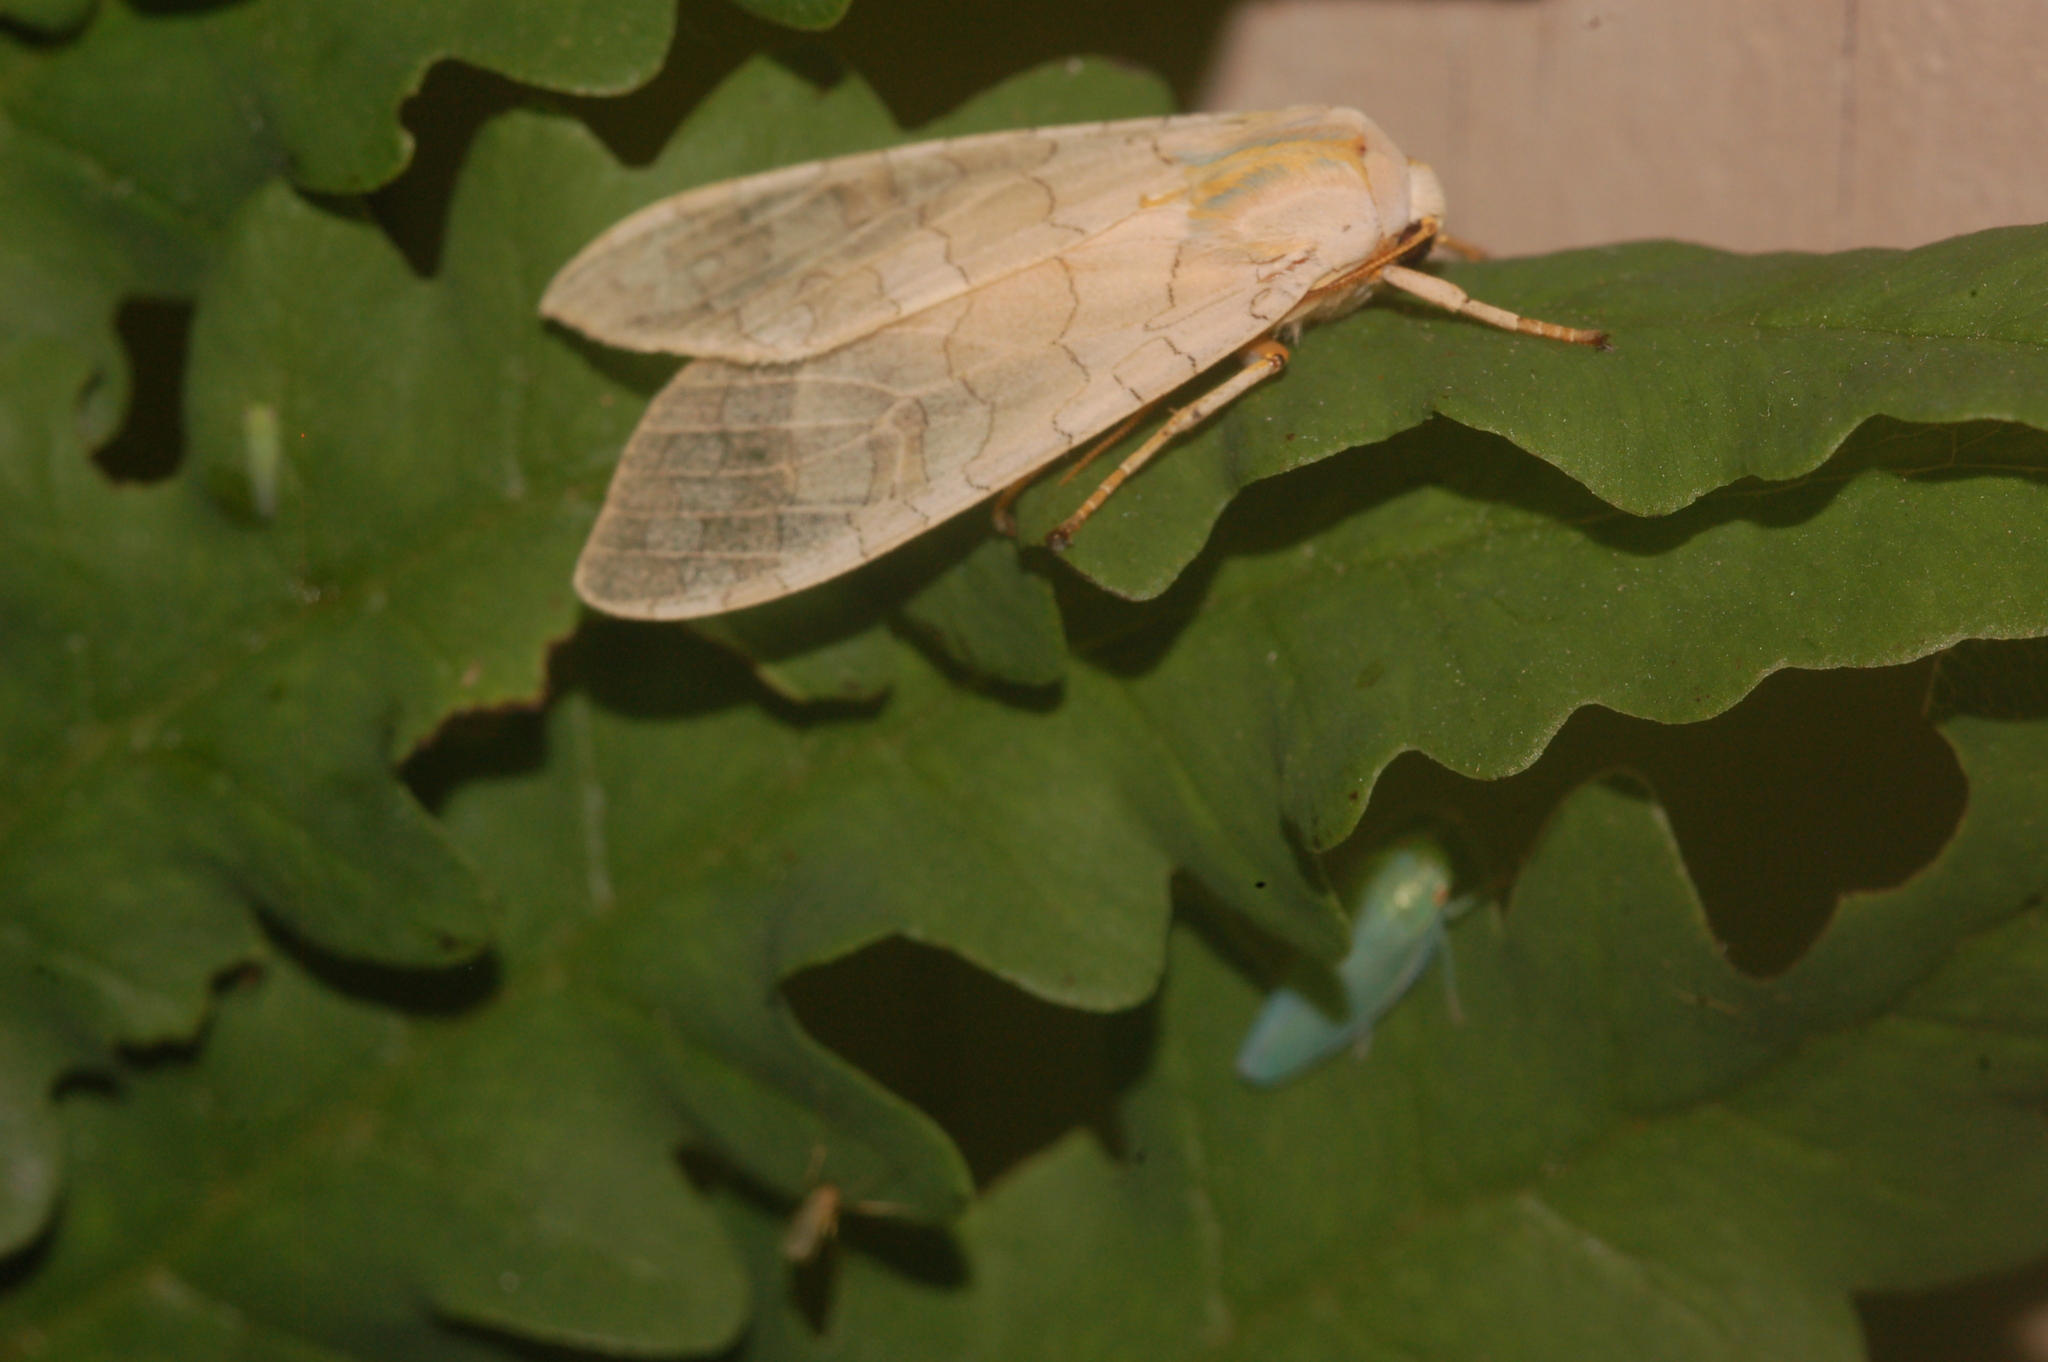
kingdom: Animalia
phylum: Arthropoda
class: Insecta
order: Lepidoptera
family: Erebidae
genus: Halysidota
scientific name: Halysidota
